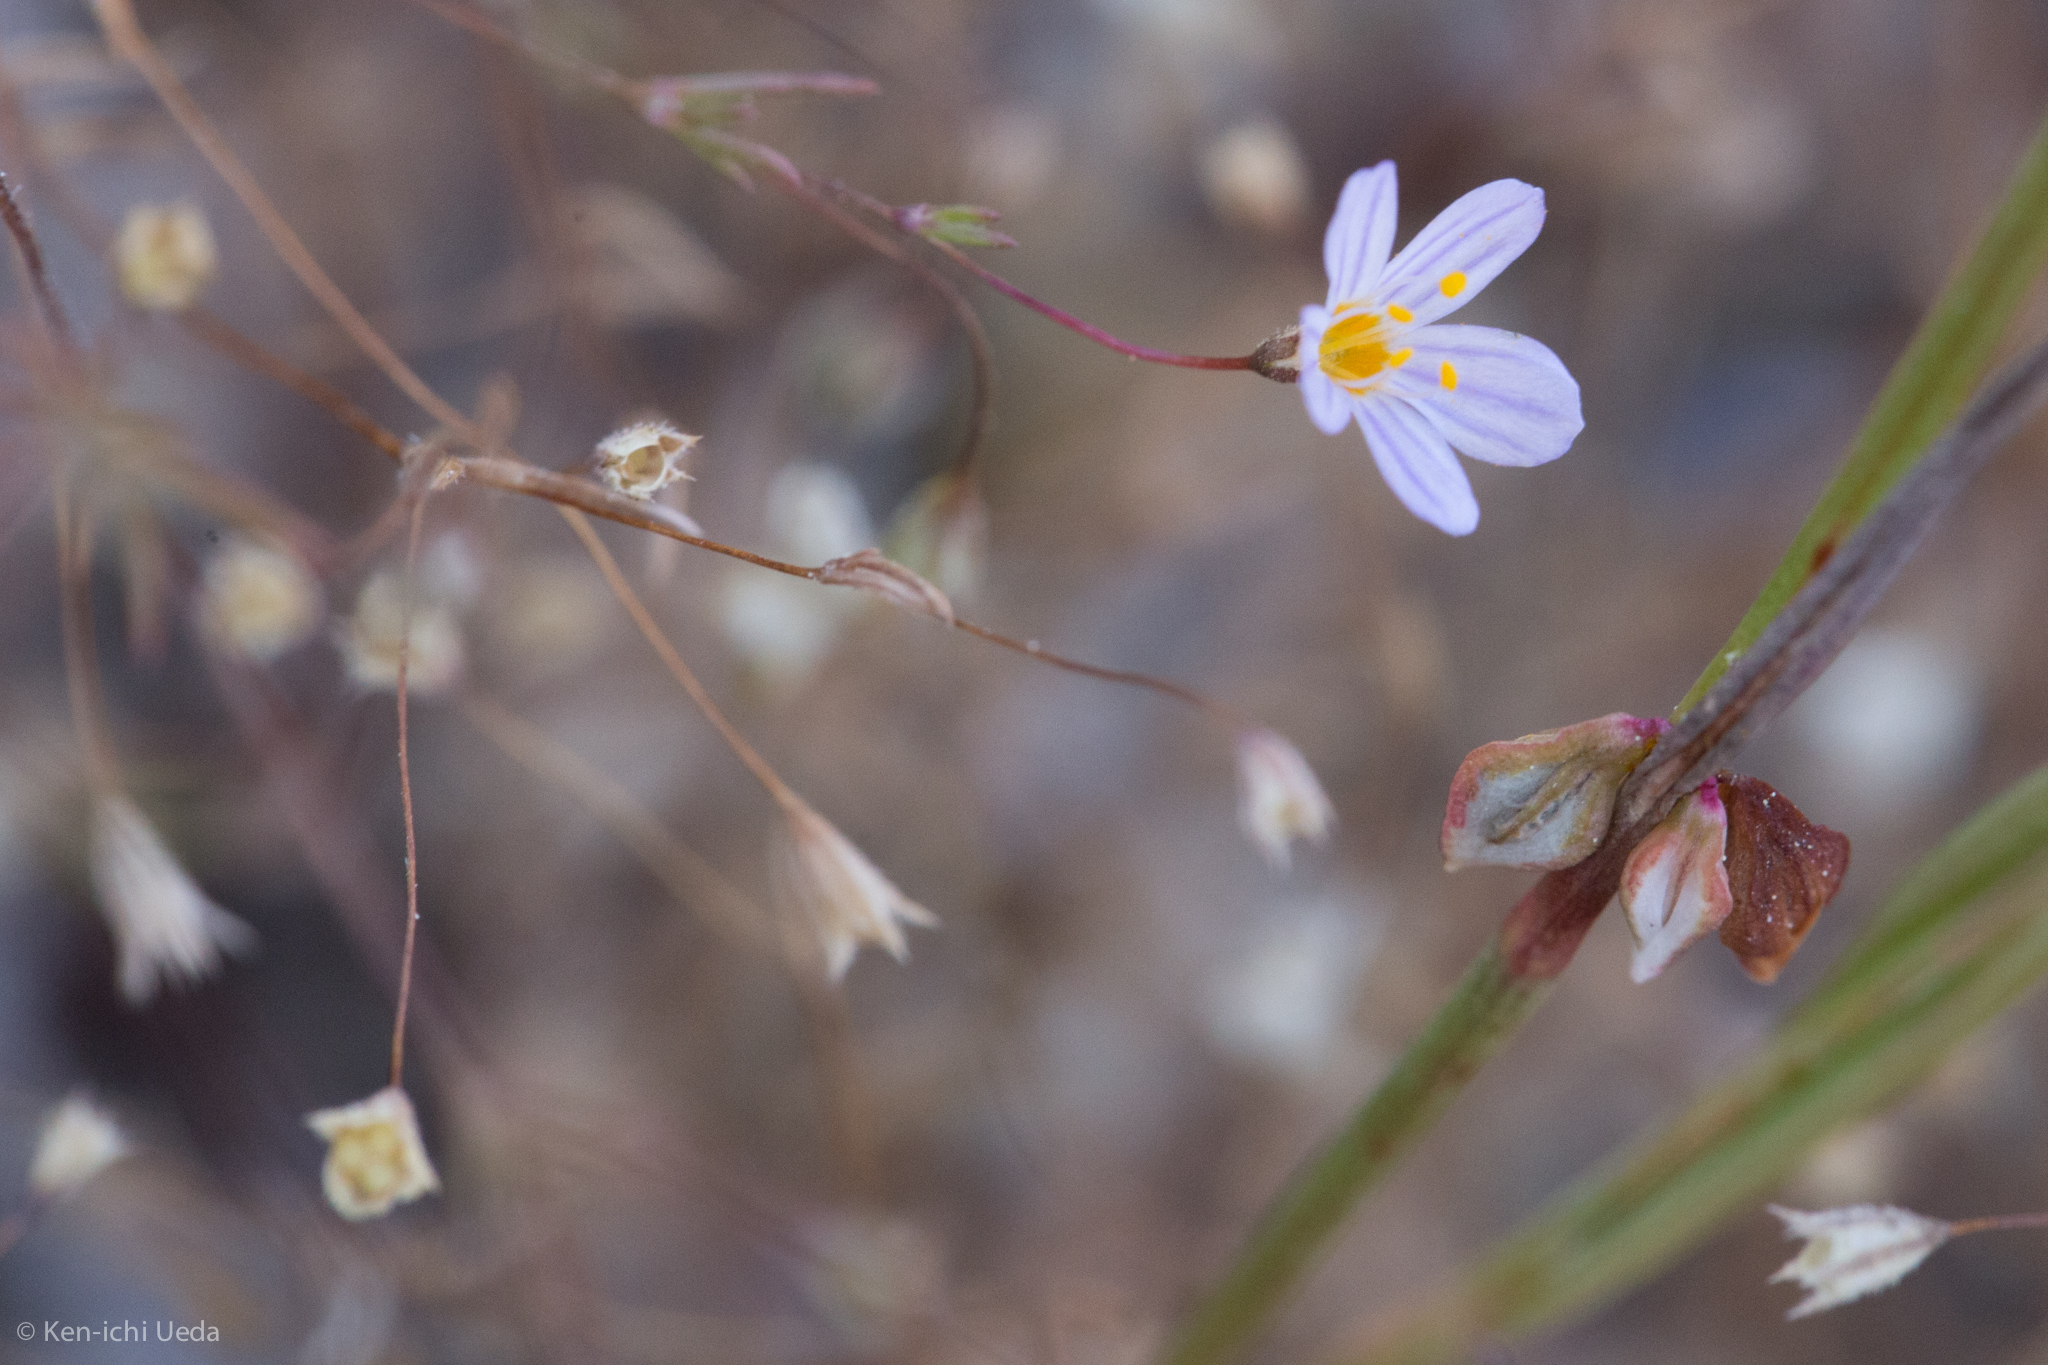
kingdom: Plantae
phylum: Tracheophyta
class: Magnoliopsida
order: Ericales
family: Polemoniaceae
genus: Leptosiphon
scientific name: Leptosiphon filipes
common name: Thread linanthus
